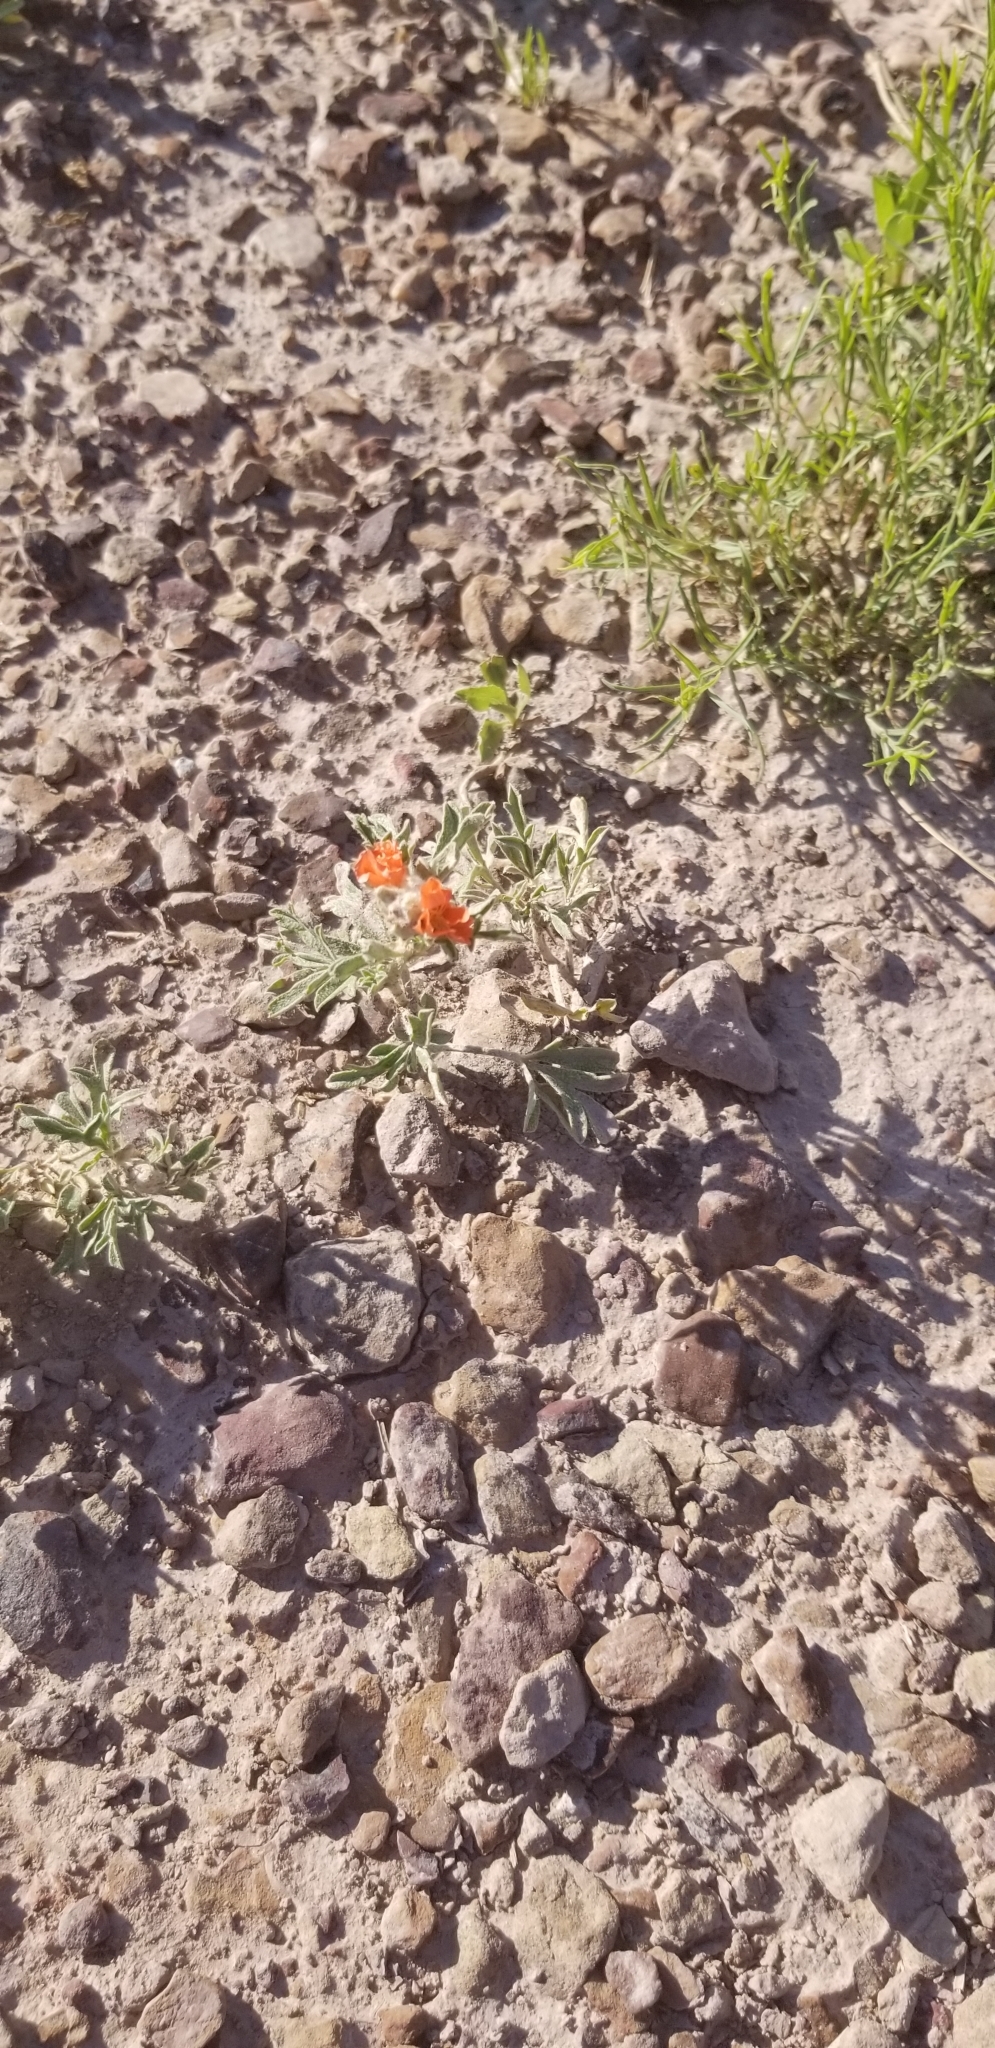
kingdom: Plantae
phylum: Tracheophyta
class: Magnoliopsida
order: Malvales
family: Malvaceae
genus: Sphaeralcea
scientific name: Sphaeralcea coccinea
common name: Moss-rose
